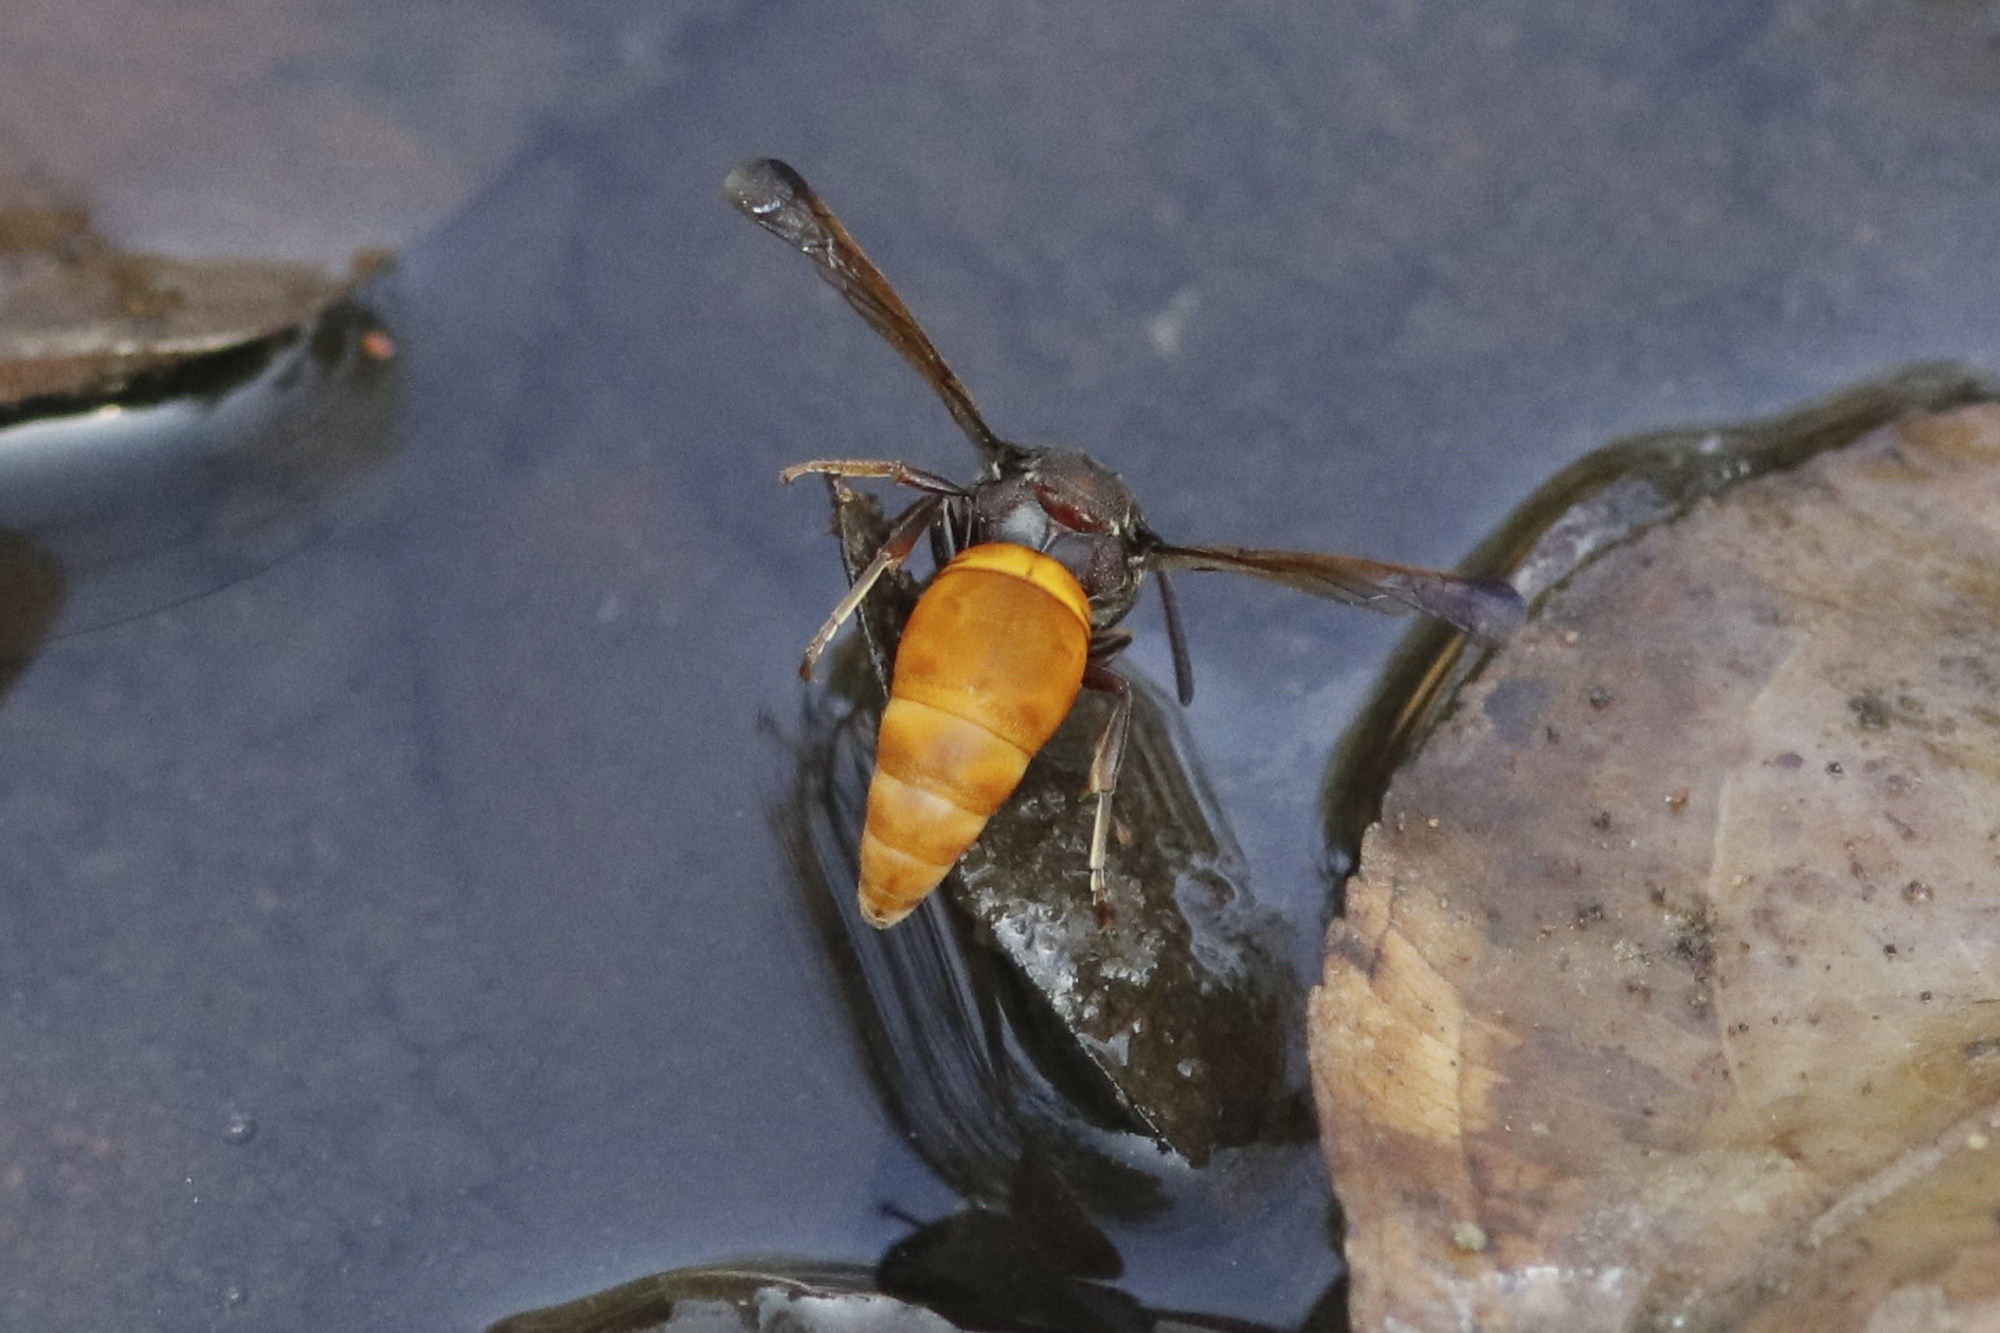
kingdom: Animalia
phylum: Arthropoda
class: Insecta
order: Hymenoptera
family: Eumenidae
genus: Tricarinodynerus
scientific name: Tricarinodynerus
